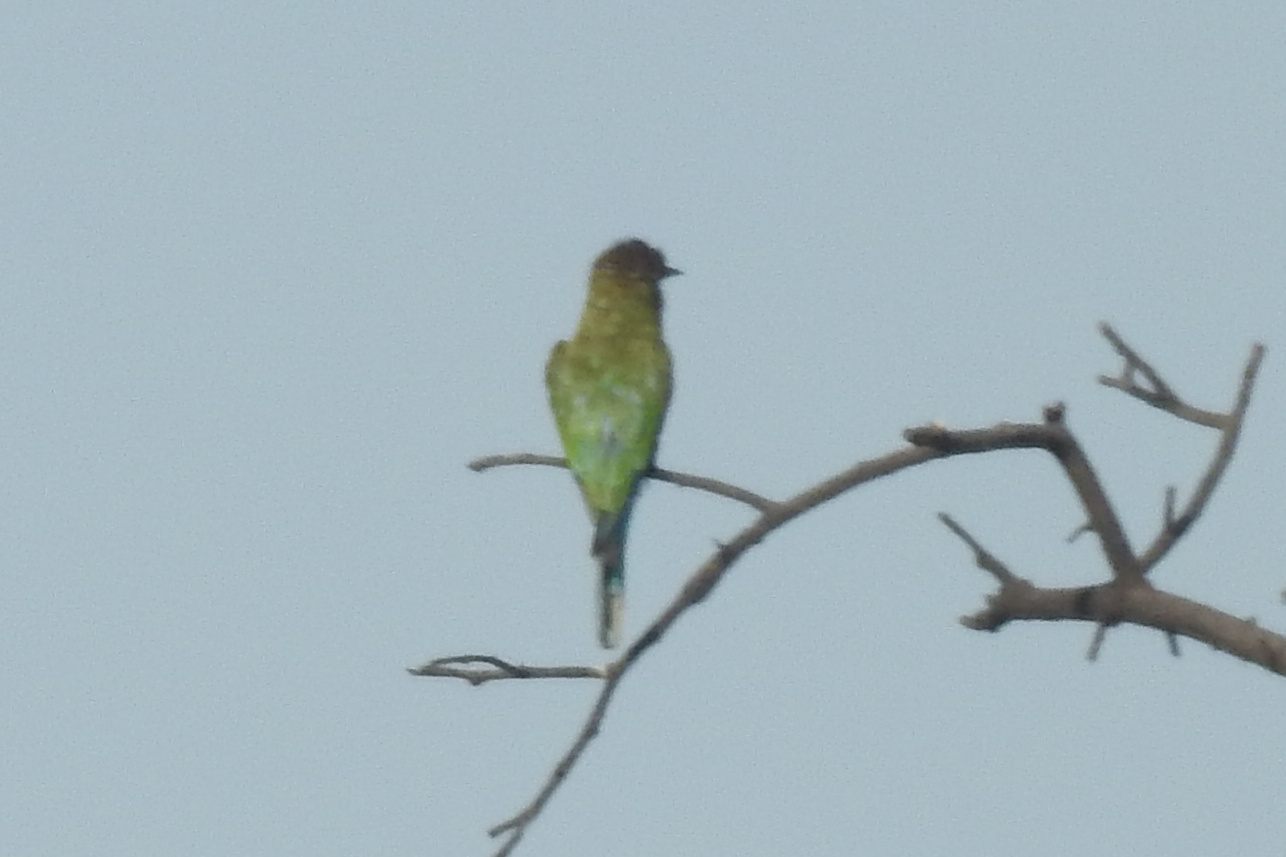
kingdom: Animalia
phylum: Chordata
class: Aves
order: Coraciiformes
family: Meropidae
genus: Merops
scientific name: Merops philippinus
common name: Blue-tailed bee-eater
